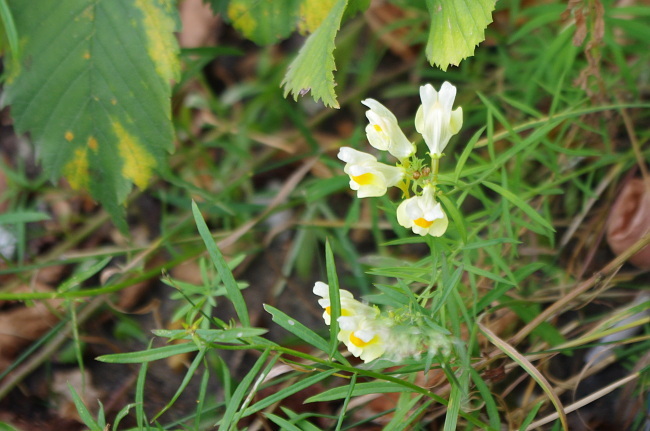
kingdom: Plantae
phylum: Tracheophyta
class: Magnoliopsida
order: Lamiales
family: Plantaginaceae
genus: Linaria
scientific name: Linaria vulgaris
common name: Butter and eggs
